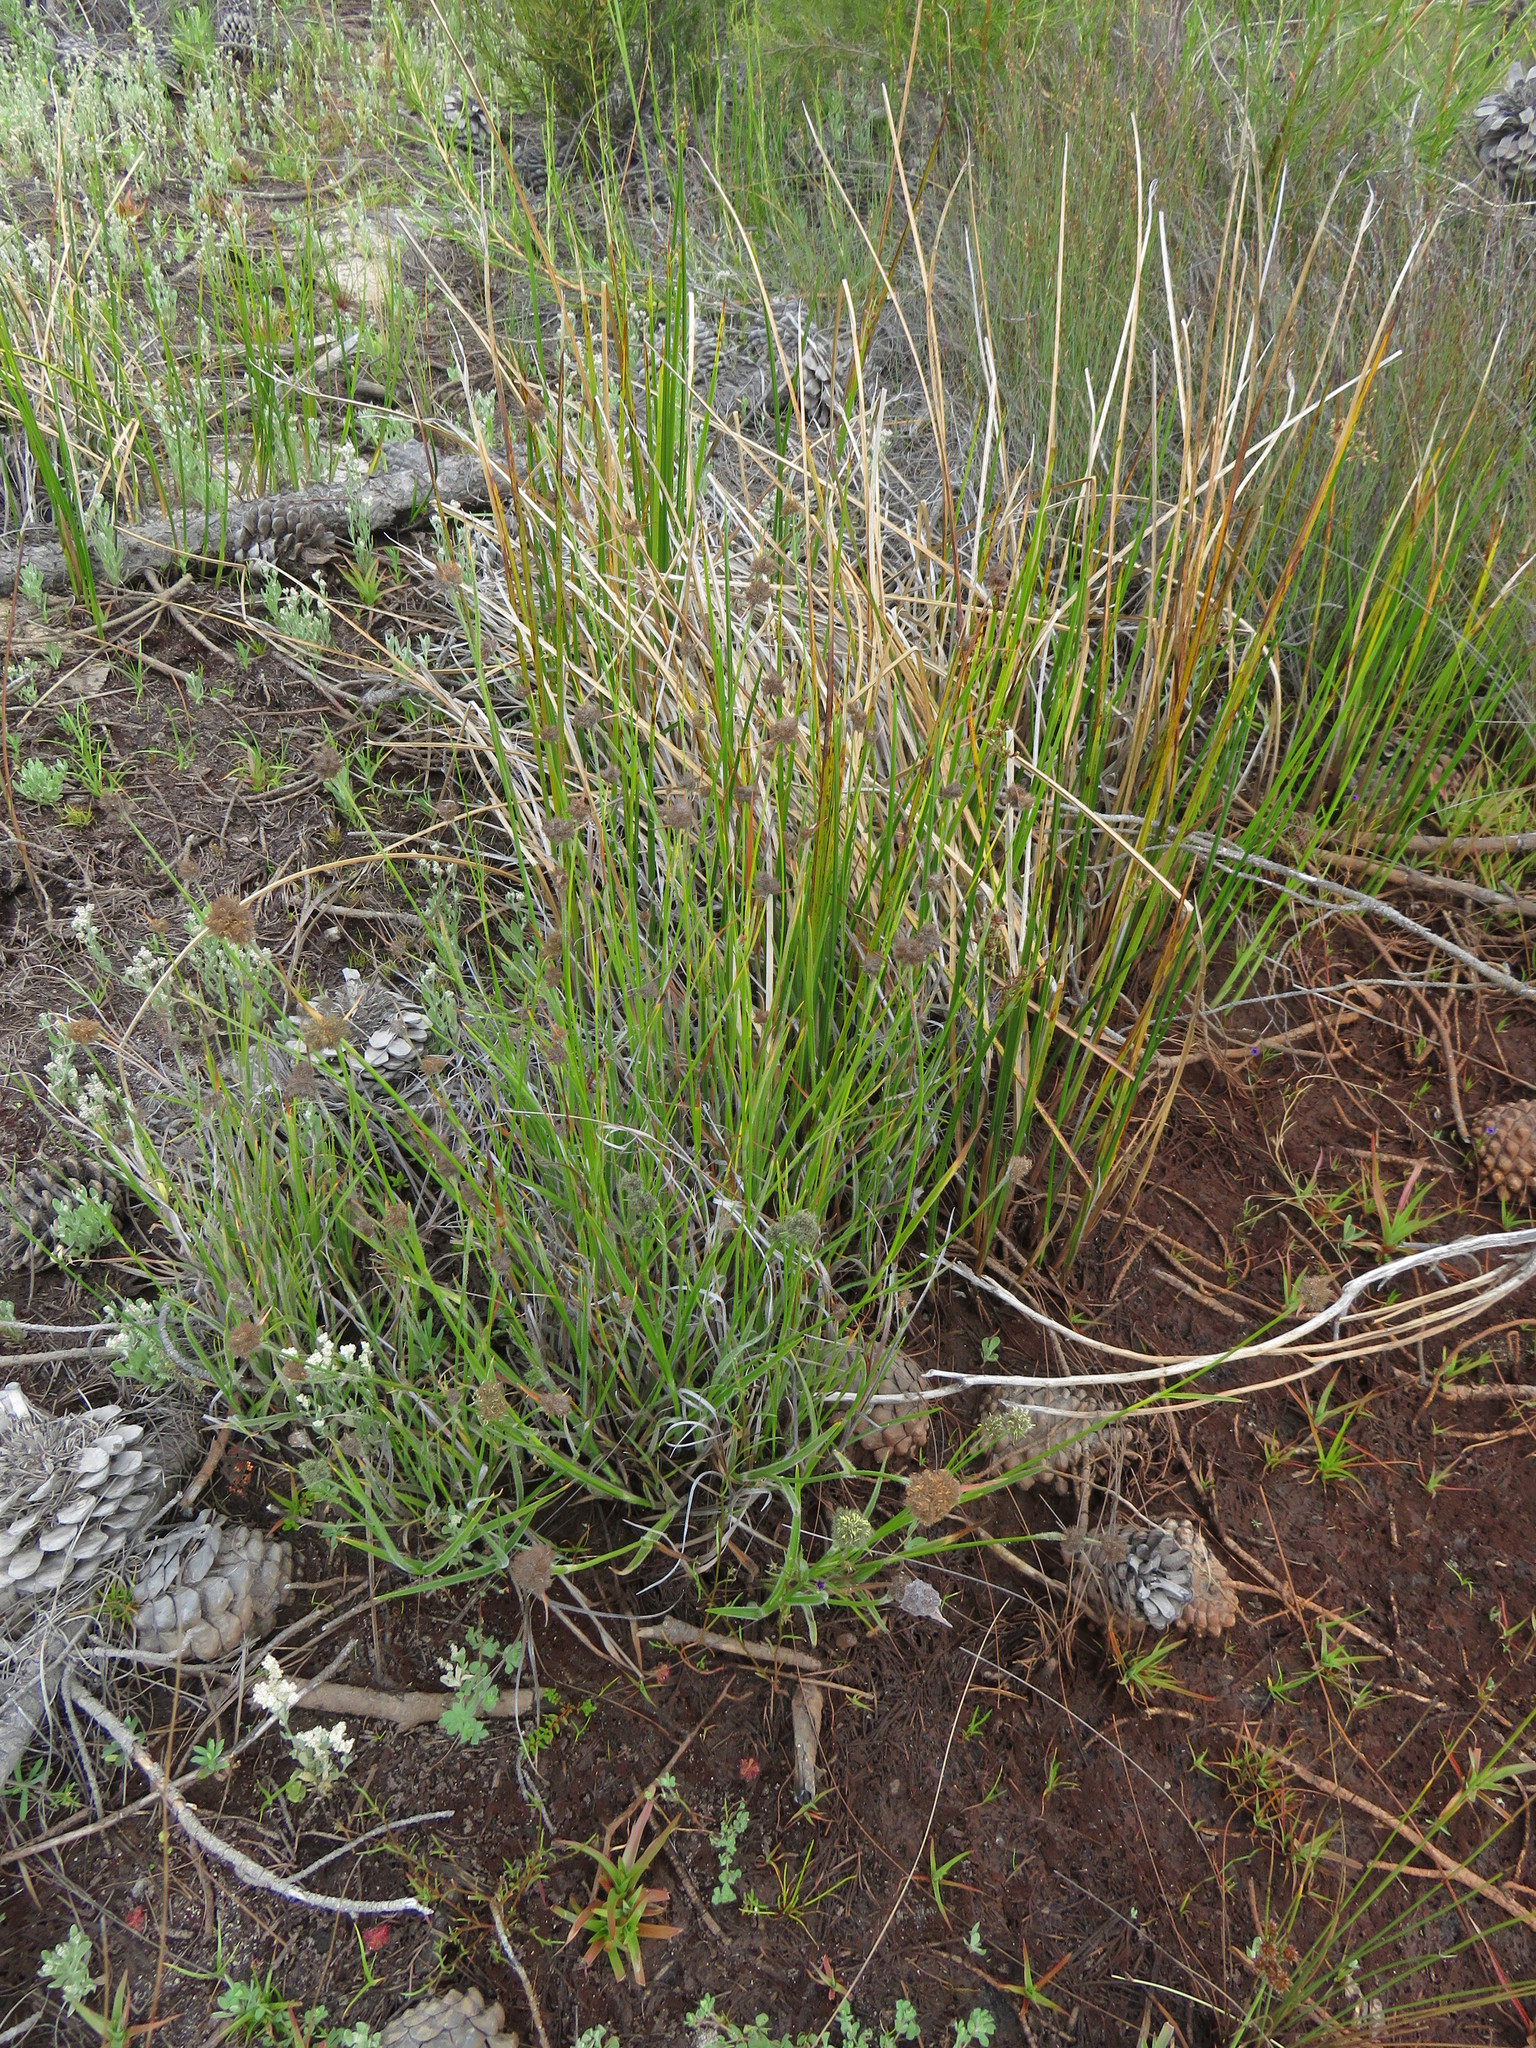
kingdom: Plantae
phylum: Tracheophyta
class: Liliopsida
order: Poales
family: Cyperaceae
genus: Fuirena
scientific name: Fuirena hirsuta
